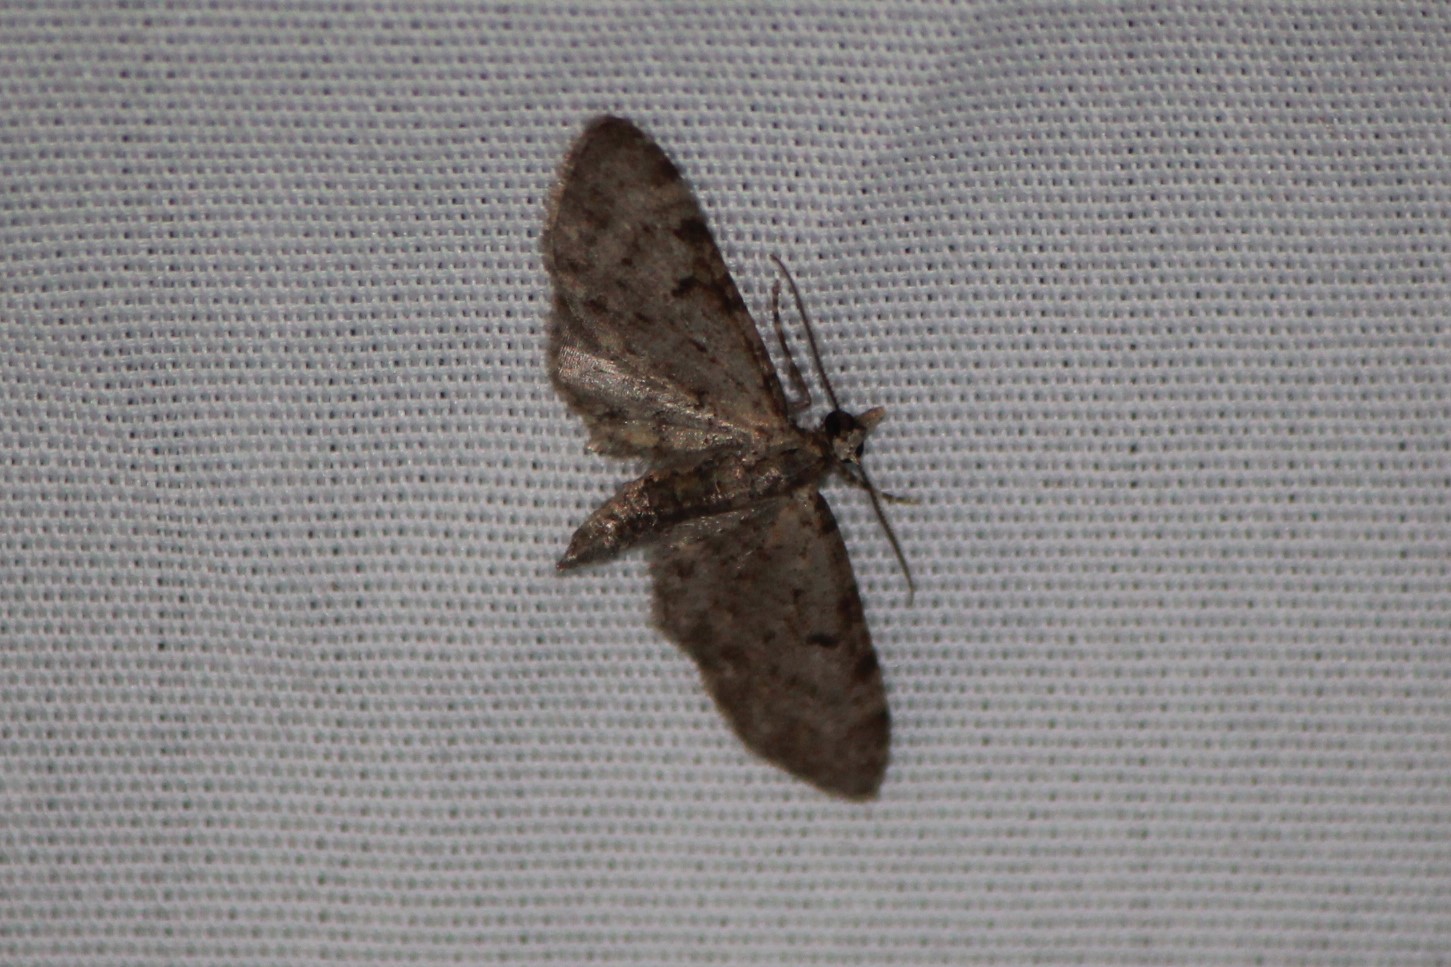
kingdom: Animalia
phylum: Arthropoda
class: Insecta
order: Lepidoptera
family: Geometridae
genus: Eupithecia
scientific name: Eupithecia miserulata
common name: Common eupithecia
